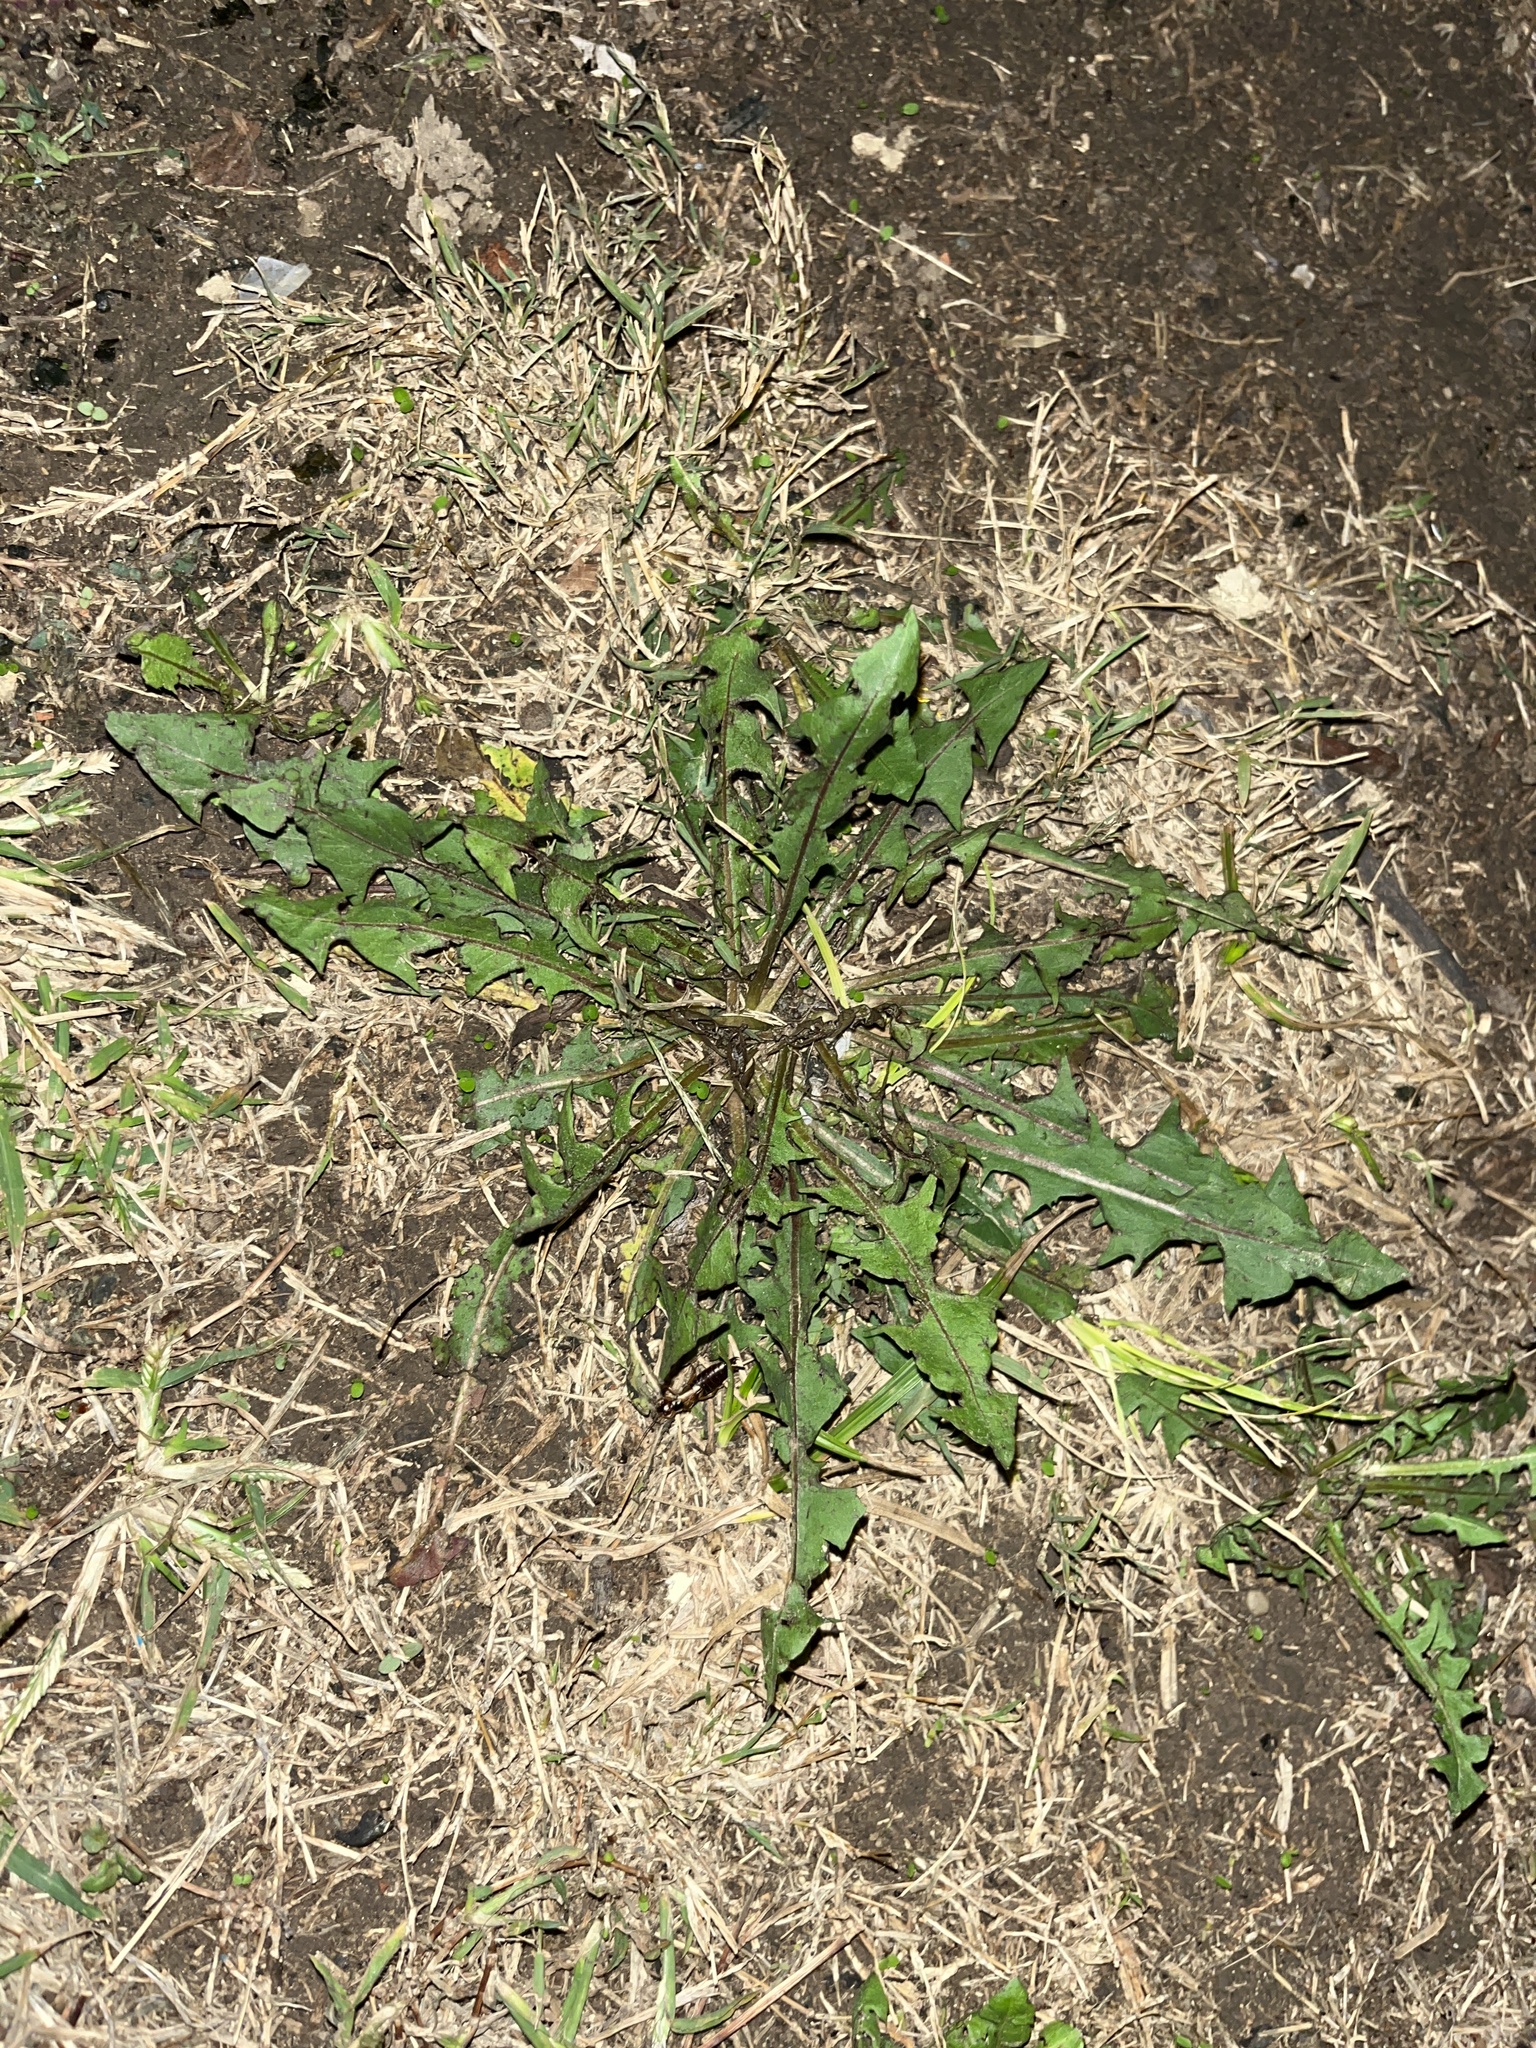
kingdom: Plantae
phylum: Tracheophyta
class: Magnoliopsida
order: Asterales
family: Asteraceae
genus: Taraxacum
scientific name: Taraxacum officinale
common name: Common dandelion
